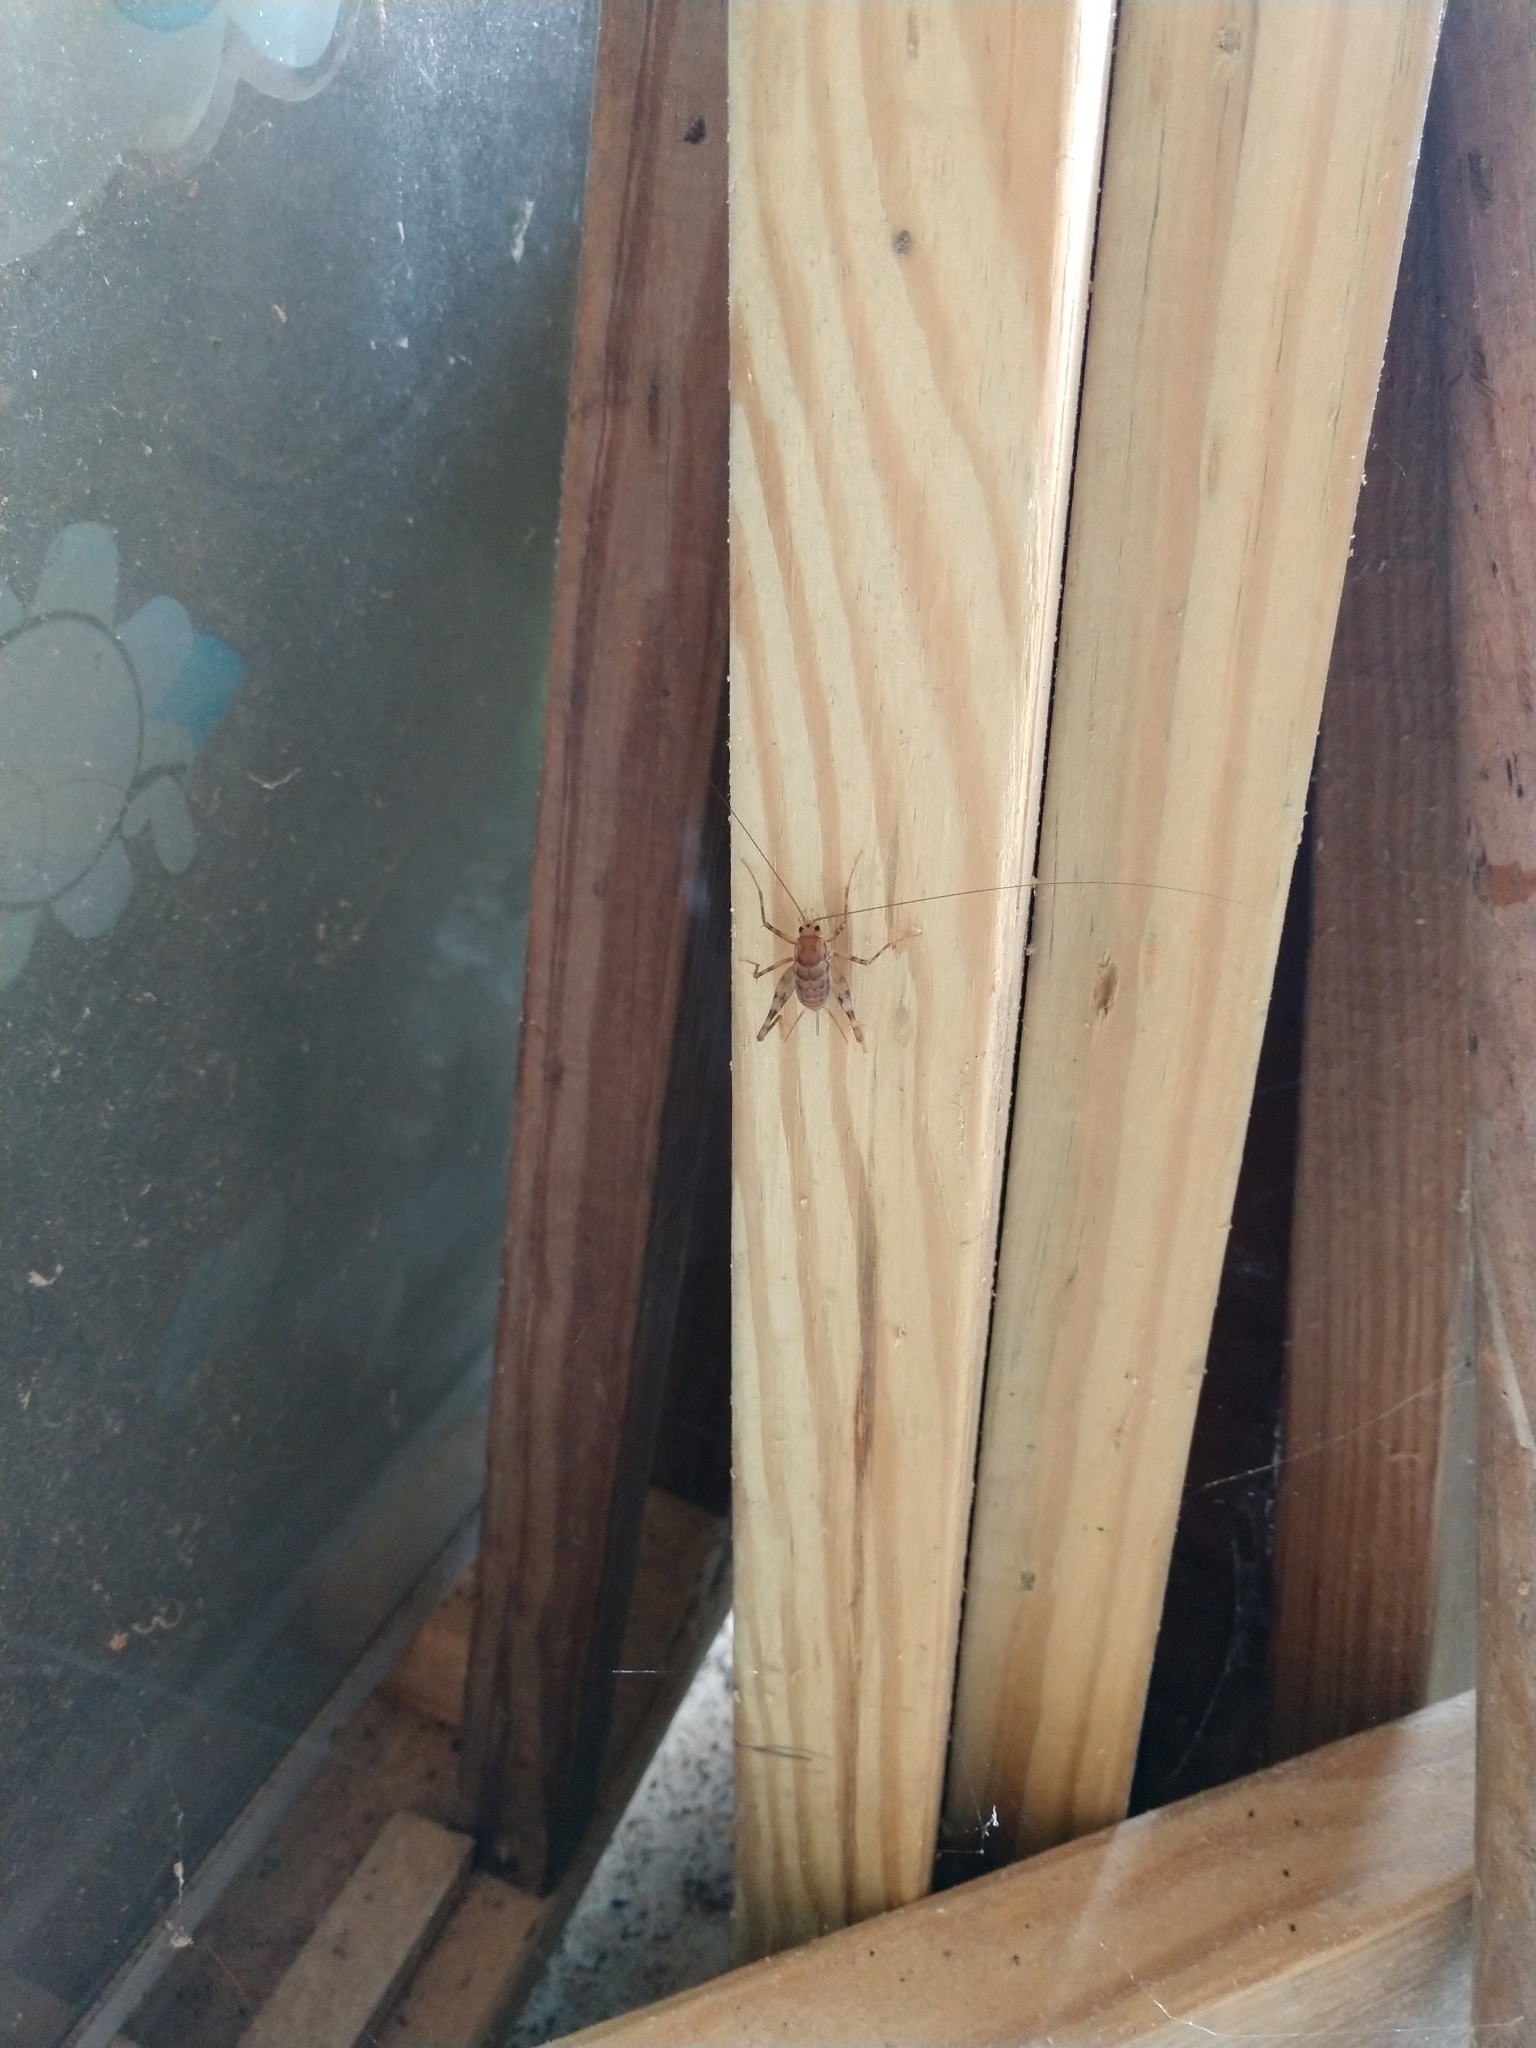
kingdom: Animalia
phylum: Arthropoda
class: Insecta
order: Orthoptera
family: Rhaphidophoridae
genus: Tachycines
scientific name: Tachycines asynamorus
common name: Greenhouse camel cricket
